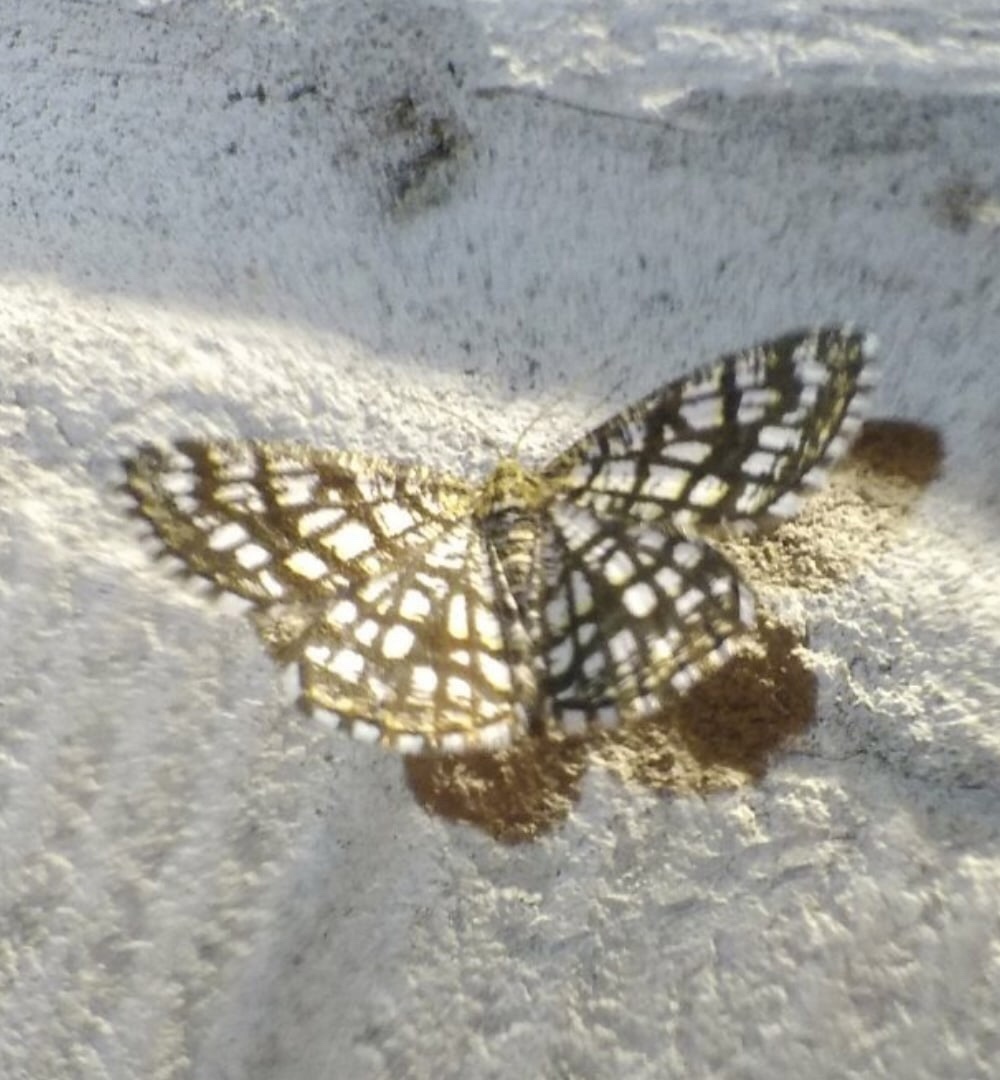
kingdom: Animalia
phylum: Arthropoda
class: Insecta
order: Lepidoptera
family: Geometridae
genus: Chiasmia
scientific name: Chiasmia clathrata
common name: Latticed heath
